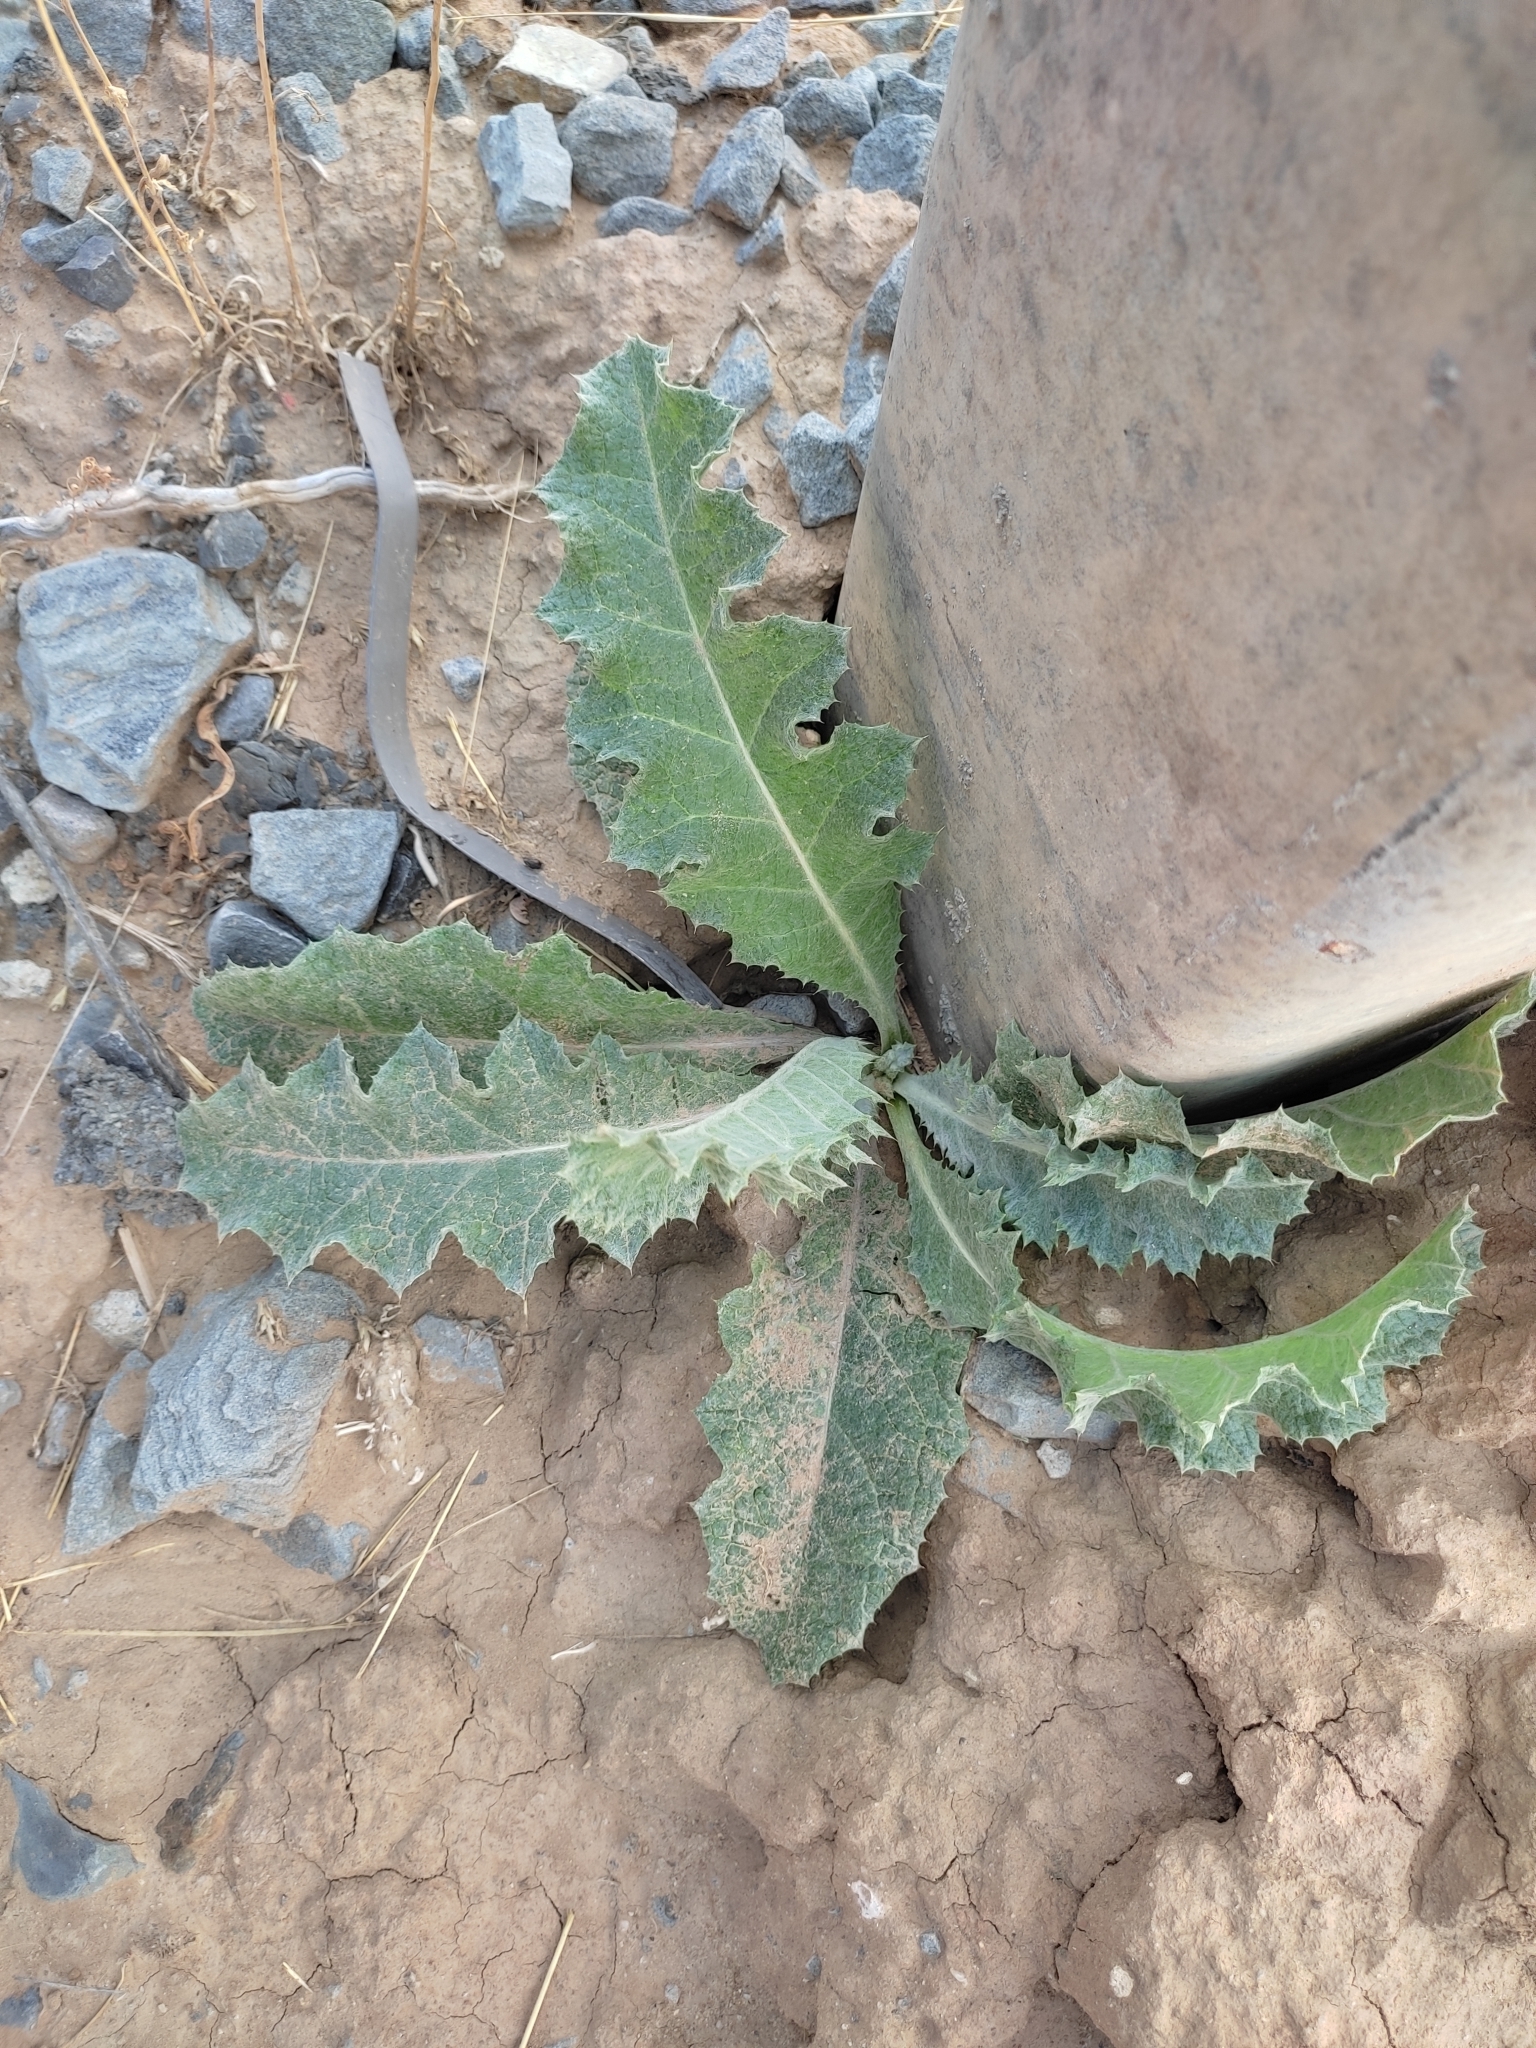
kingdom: Plantae
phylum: Tracheophyta
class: Magnoliopsida
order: Asterales
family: Asteraceae
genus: Onopordum
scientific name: Onopordum acanthium
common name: Scotch thistle
